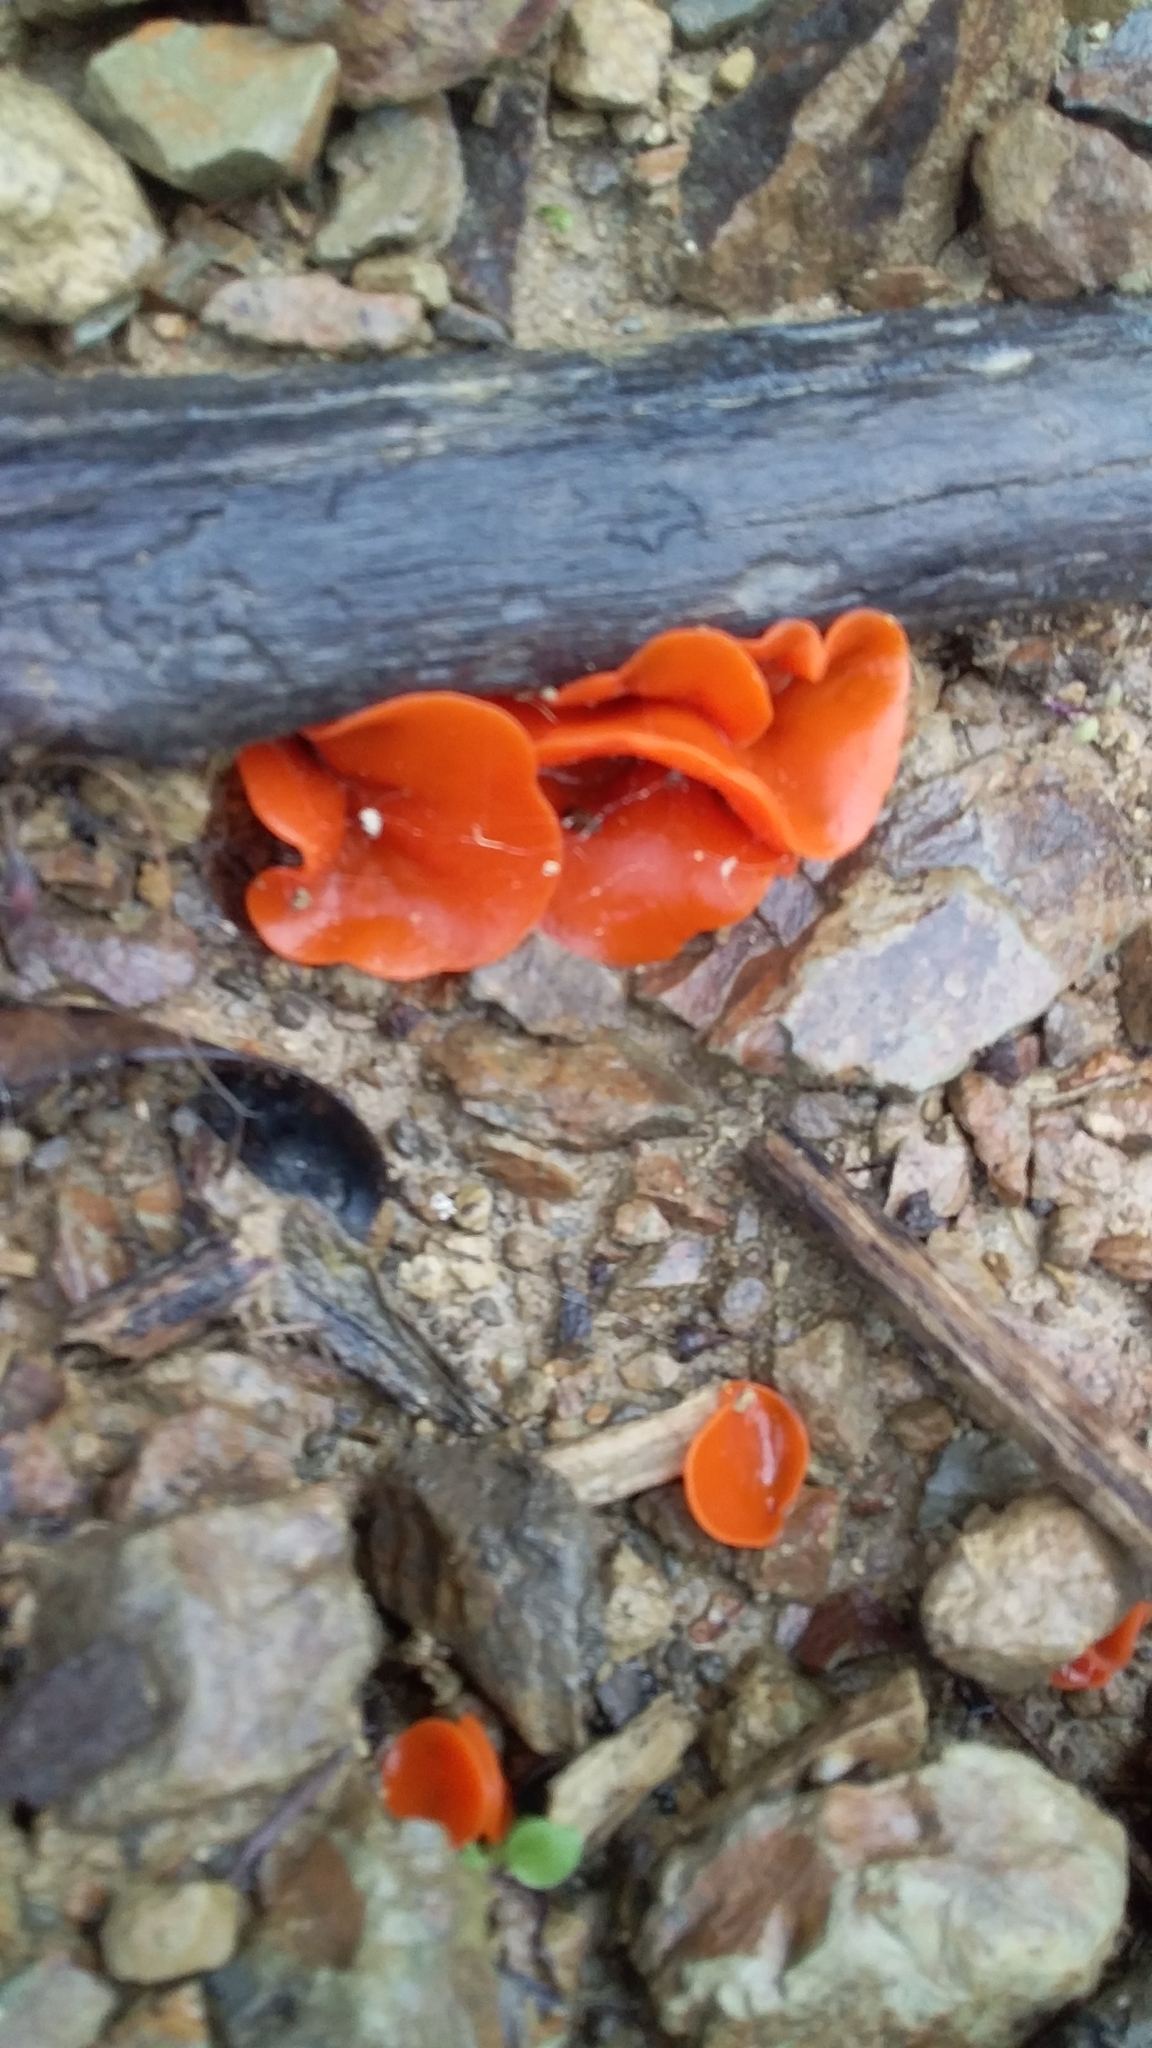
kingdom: Fungi
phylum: Ascomycota
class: Pezizomycetes
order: Pezizales
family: Pyronemataceae
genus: Aleuria
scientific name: Aleuria aurantia
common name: Orange peel fungus
